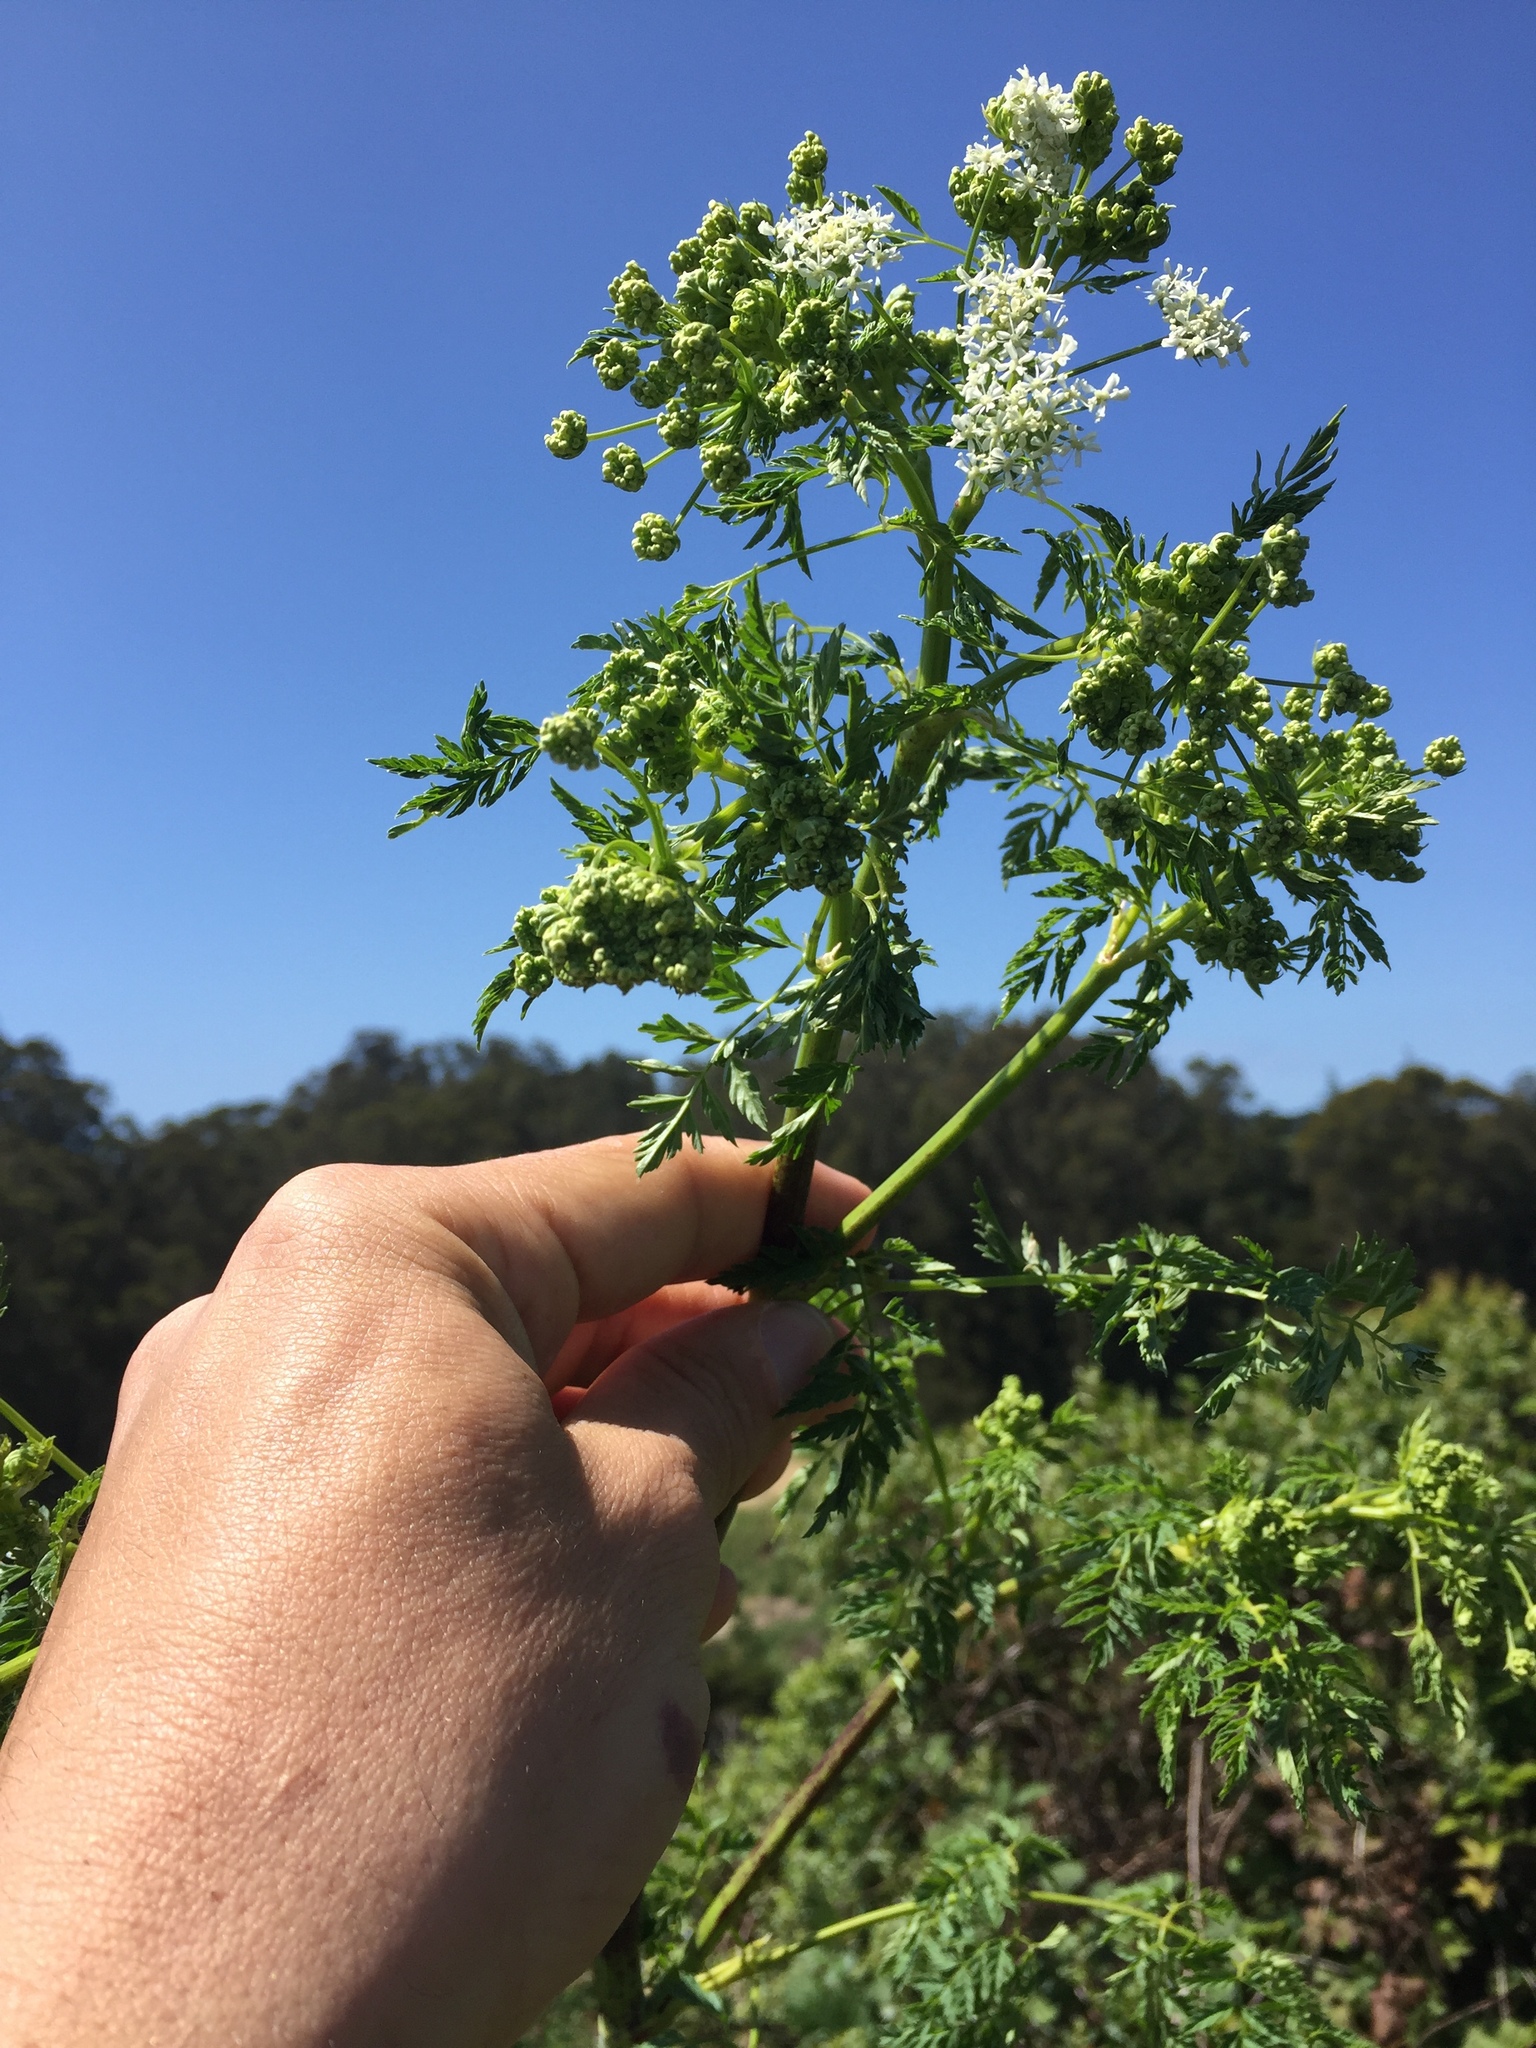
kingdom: Plantae
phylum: Tracheophyta
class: Magnoliopsida
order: Apiales
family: Apiaceae
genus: Conium
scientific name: Conium maculatum
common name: Hemlock
